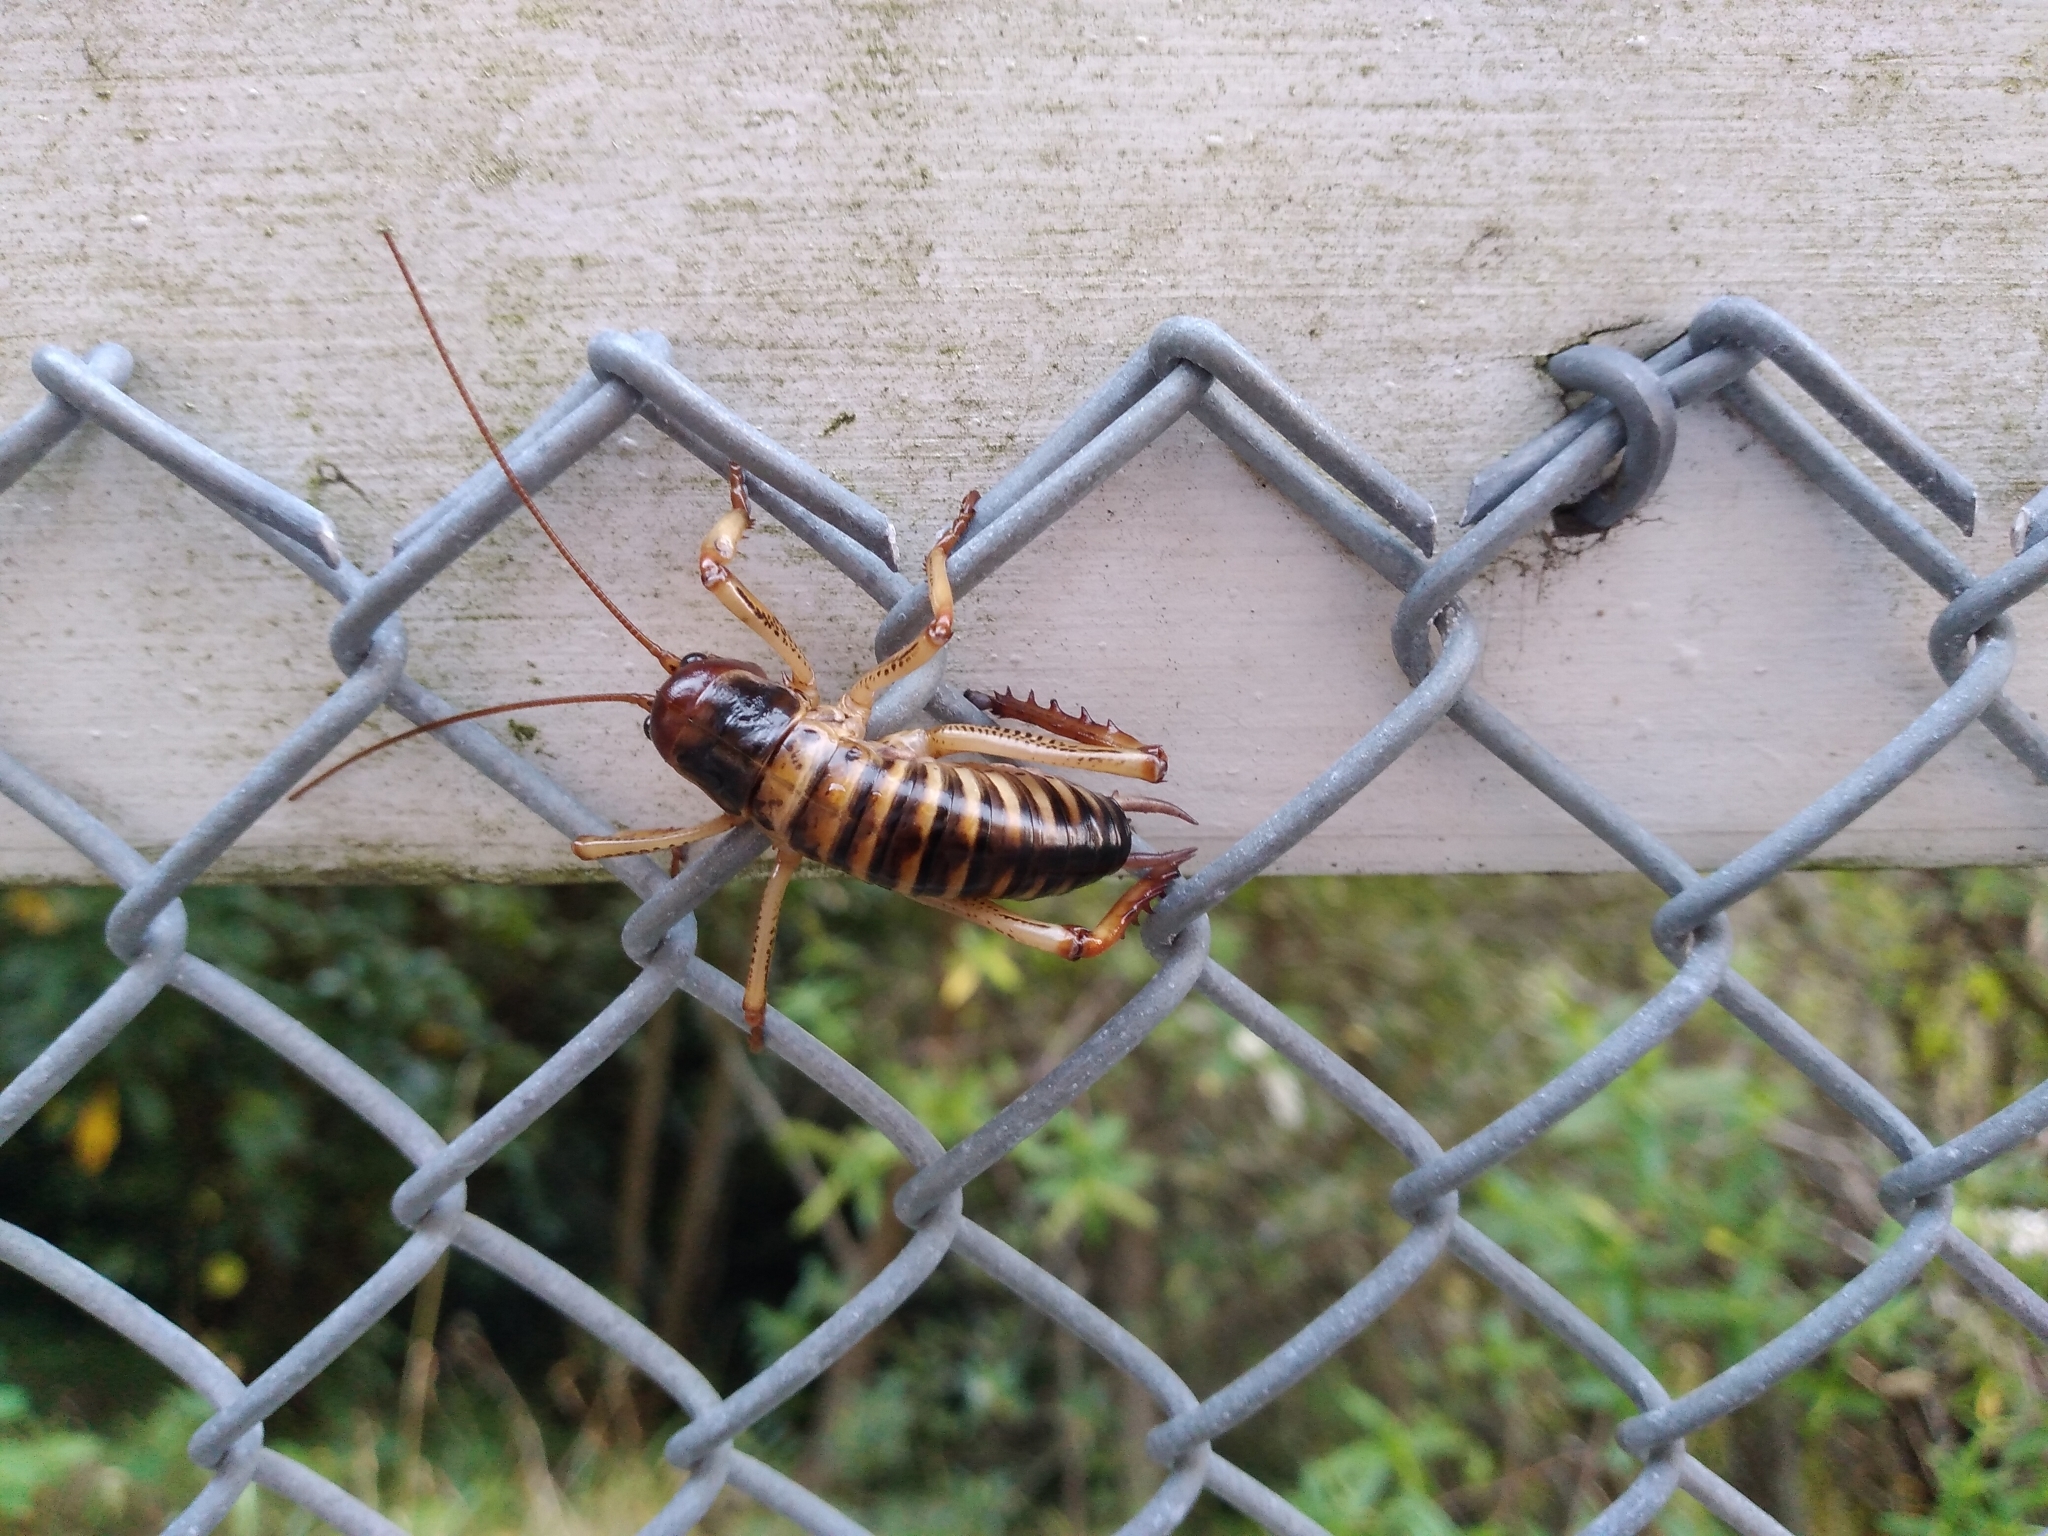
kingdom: Animalia
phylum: Arthropoda
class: Insecta
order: Orthoptera
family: Anostostomatidae
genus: Hemideina
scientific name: Hemideina crassidens
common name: Wellington tree weta
